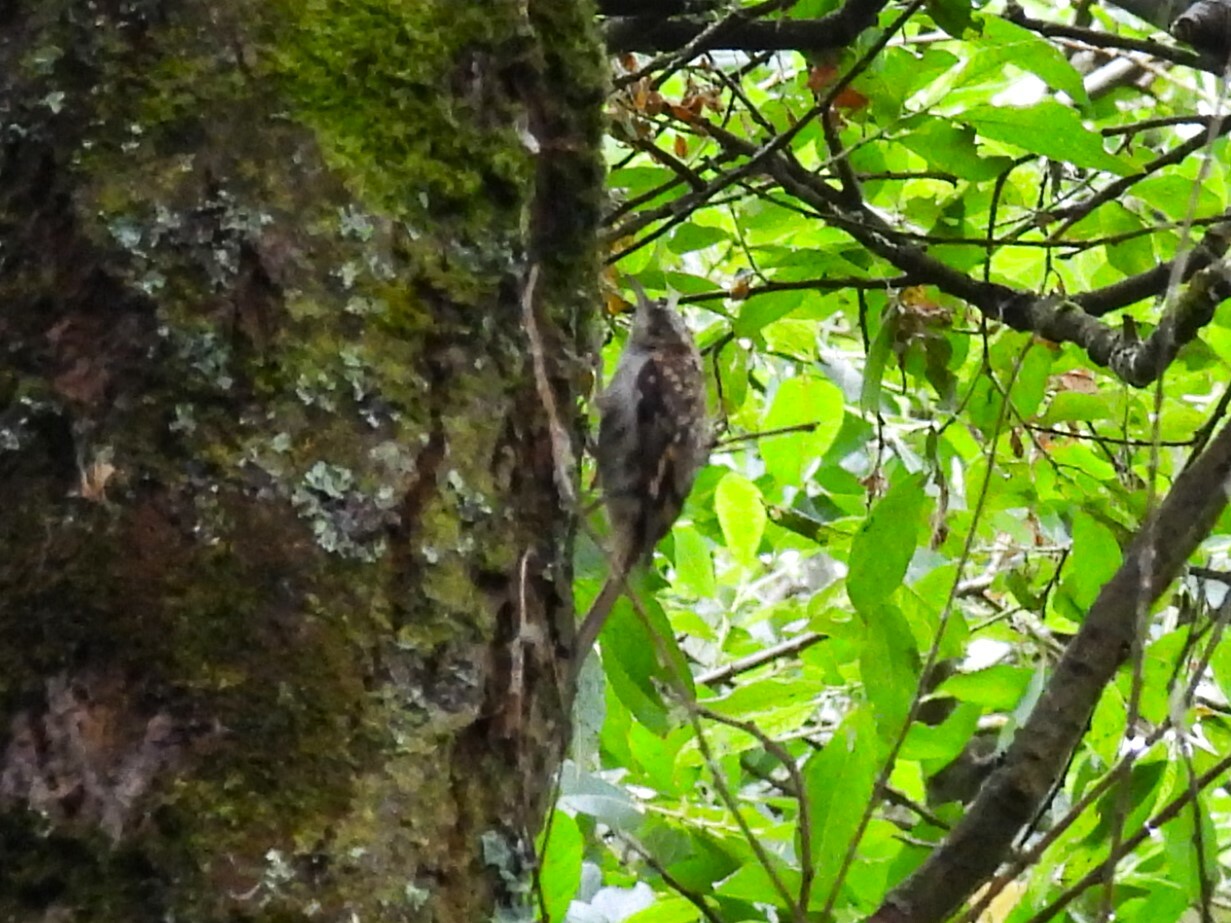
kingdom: Animalia
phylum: Chordata
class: Aves
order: Passeriformes
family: Certhiidae
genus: Certhia
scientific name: Certhia familiaris
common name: Eurasian treecreeper
